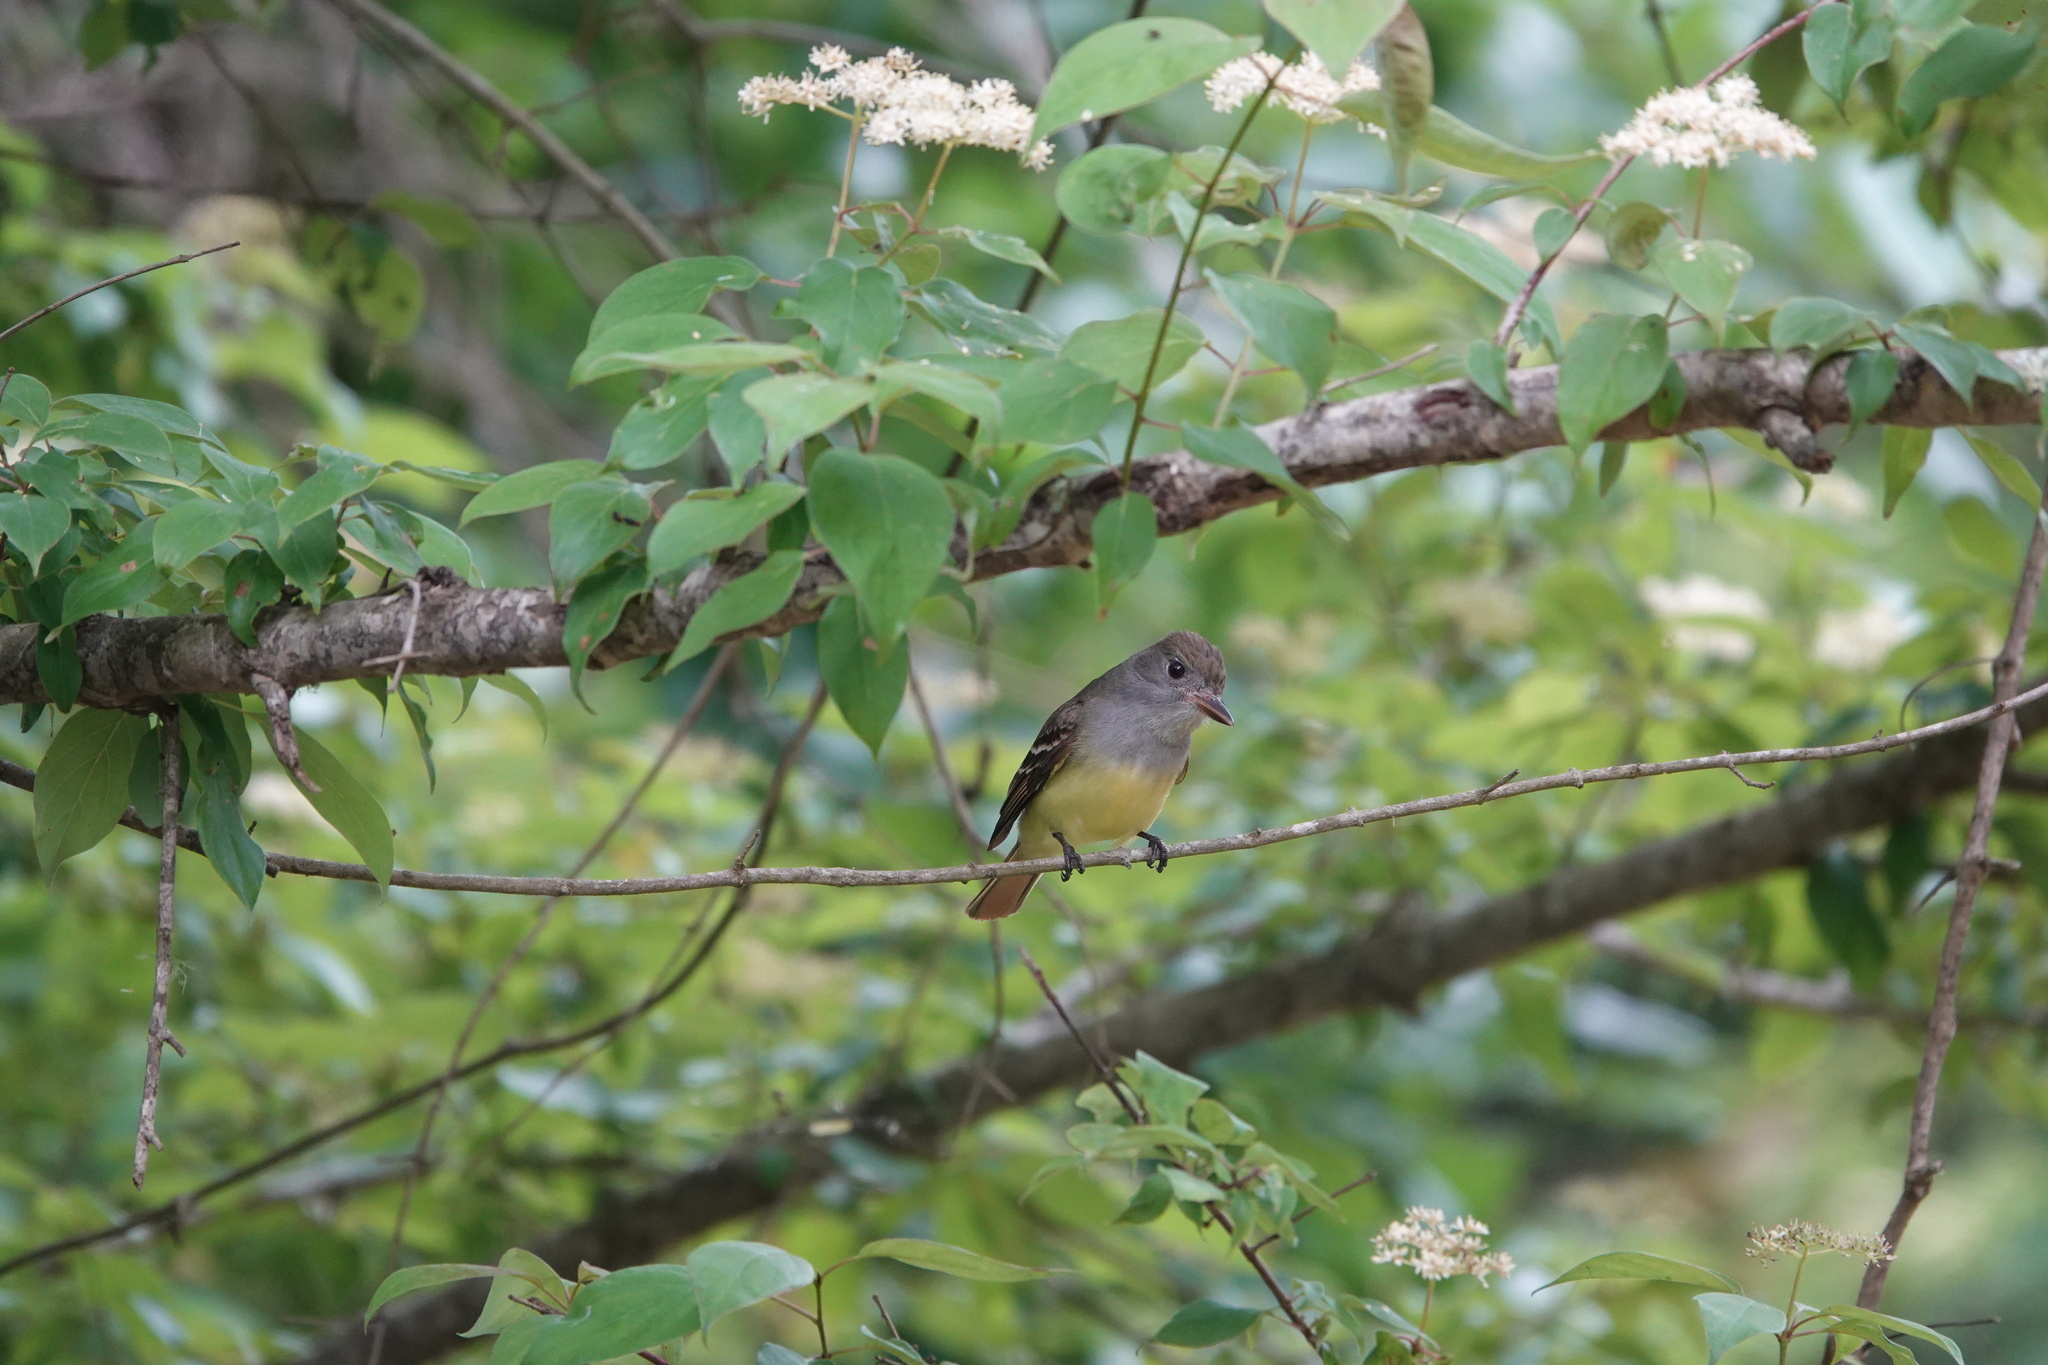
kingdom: Animalia
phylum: Chordata
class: Aves
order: Passeriformes
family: Tyrannidae
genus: Myiarchus
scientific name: Myiarchus crinitus
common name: Great crested flycatcher
